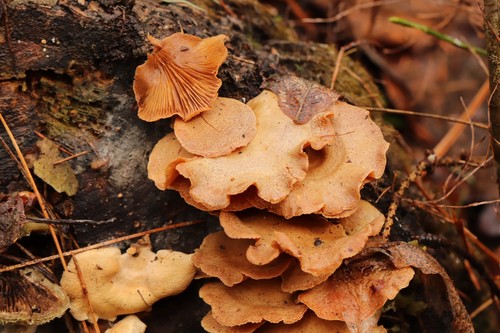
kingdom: Fungi
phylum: Basidiomycota
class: Agaricomycetes
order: Agaricales
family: Mycenaceae
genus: Panellus
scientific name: Panellus stipticus
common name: Bitter oysterling
